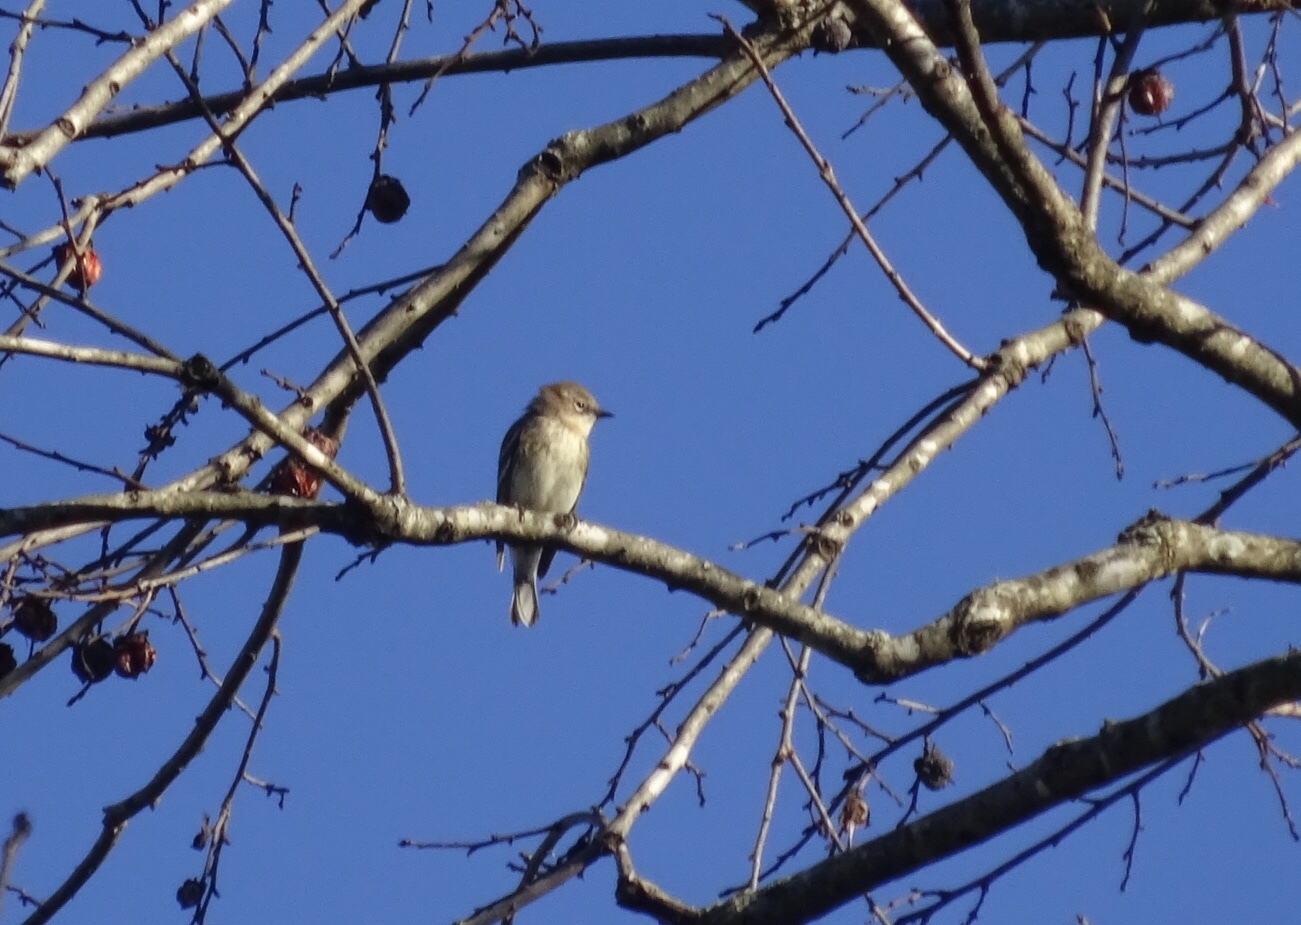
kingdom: Animalia
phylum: Chordata
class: Aves
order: Passeriformes
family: Parulidae
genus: Setophaga
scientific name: Setophaga coronata
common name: Myrtle warbler
